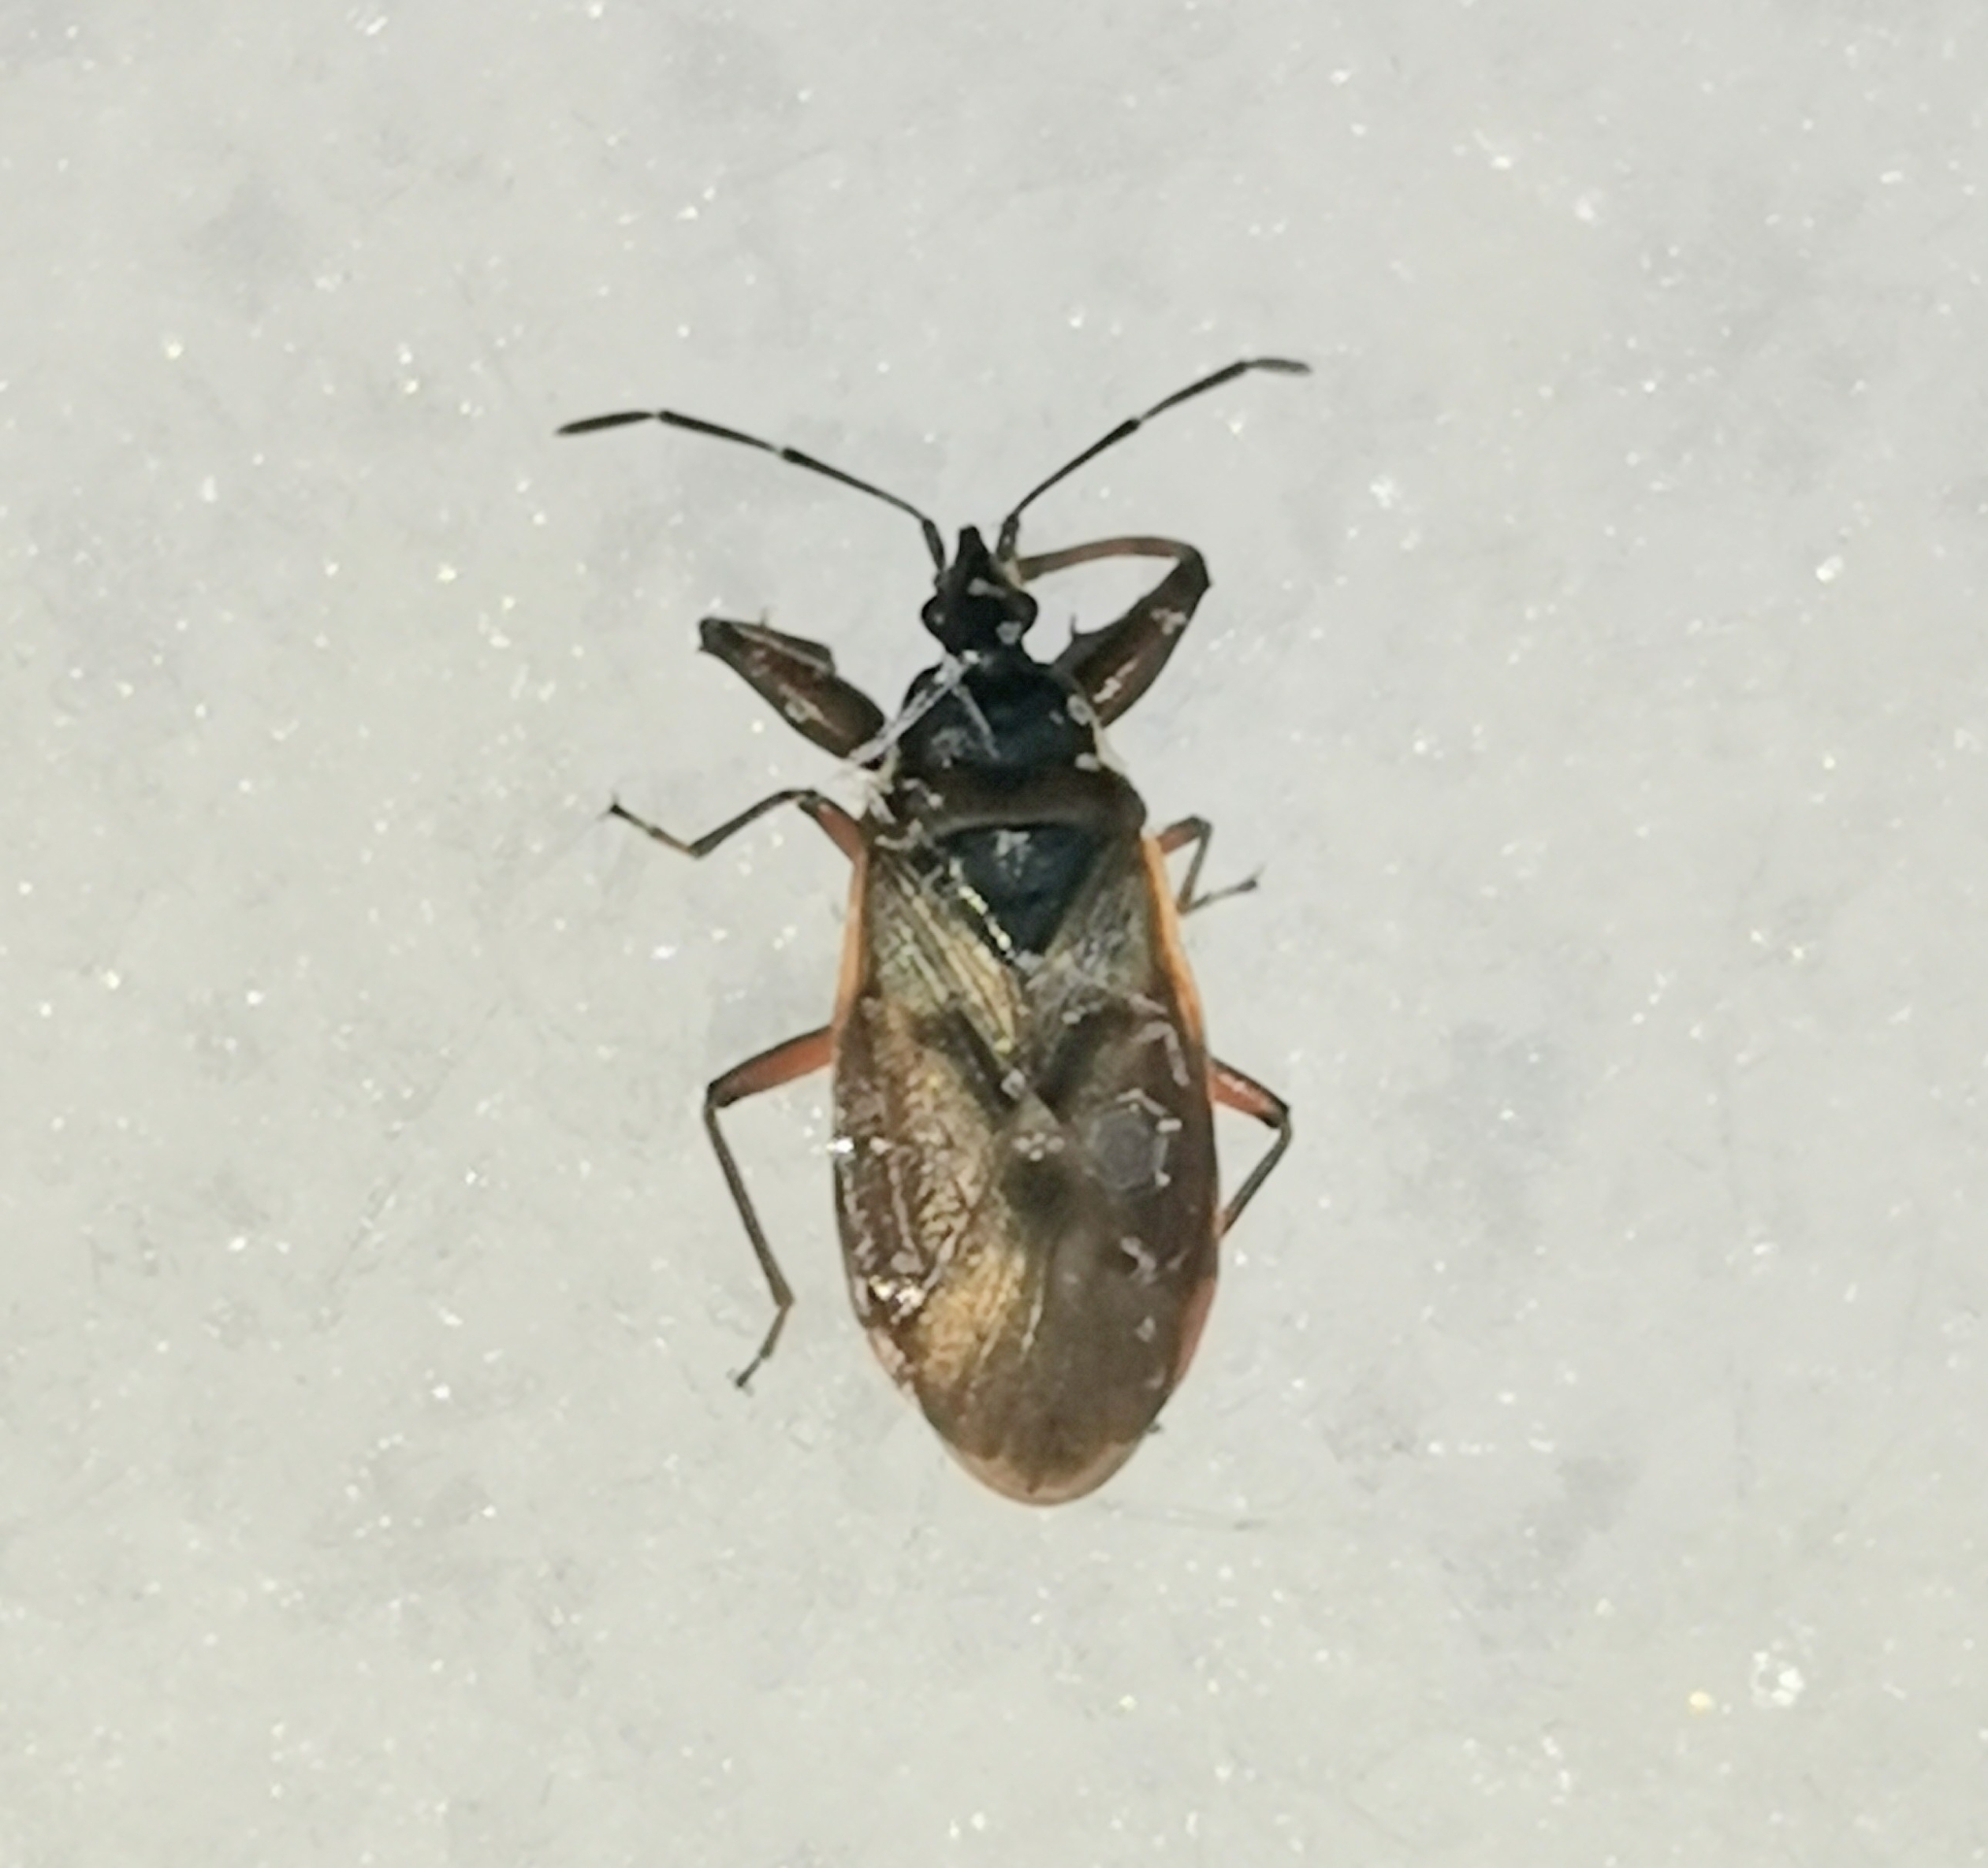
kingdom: Animalia
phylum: Arthropoda
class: Insecta
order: Hemiptera
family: Rhyparochromidae
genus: Gastrodes
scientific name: Gastrodes abietum
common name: Spruce cone bug
